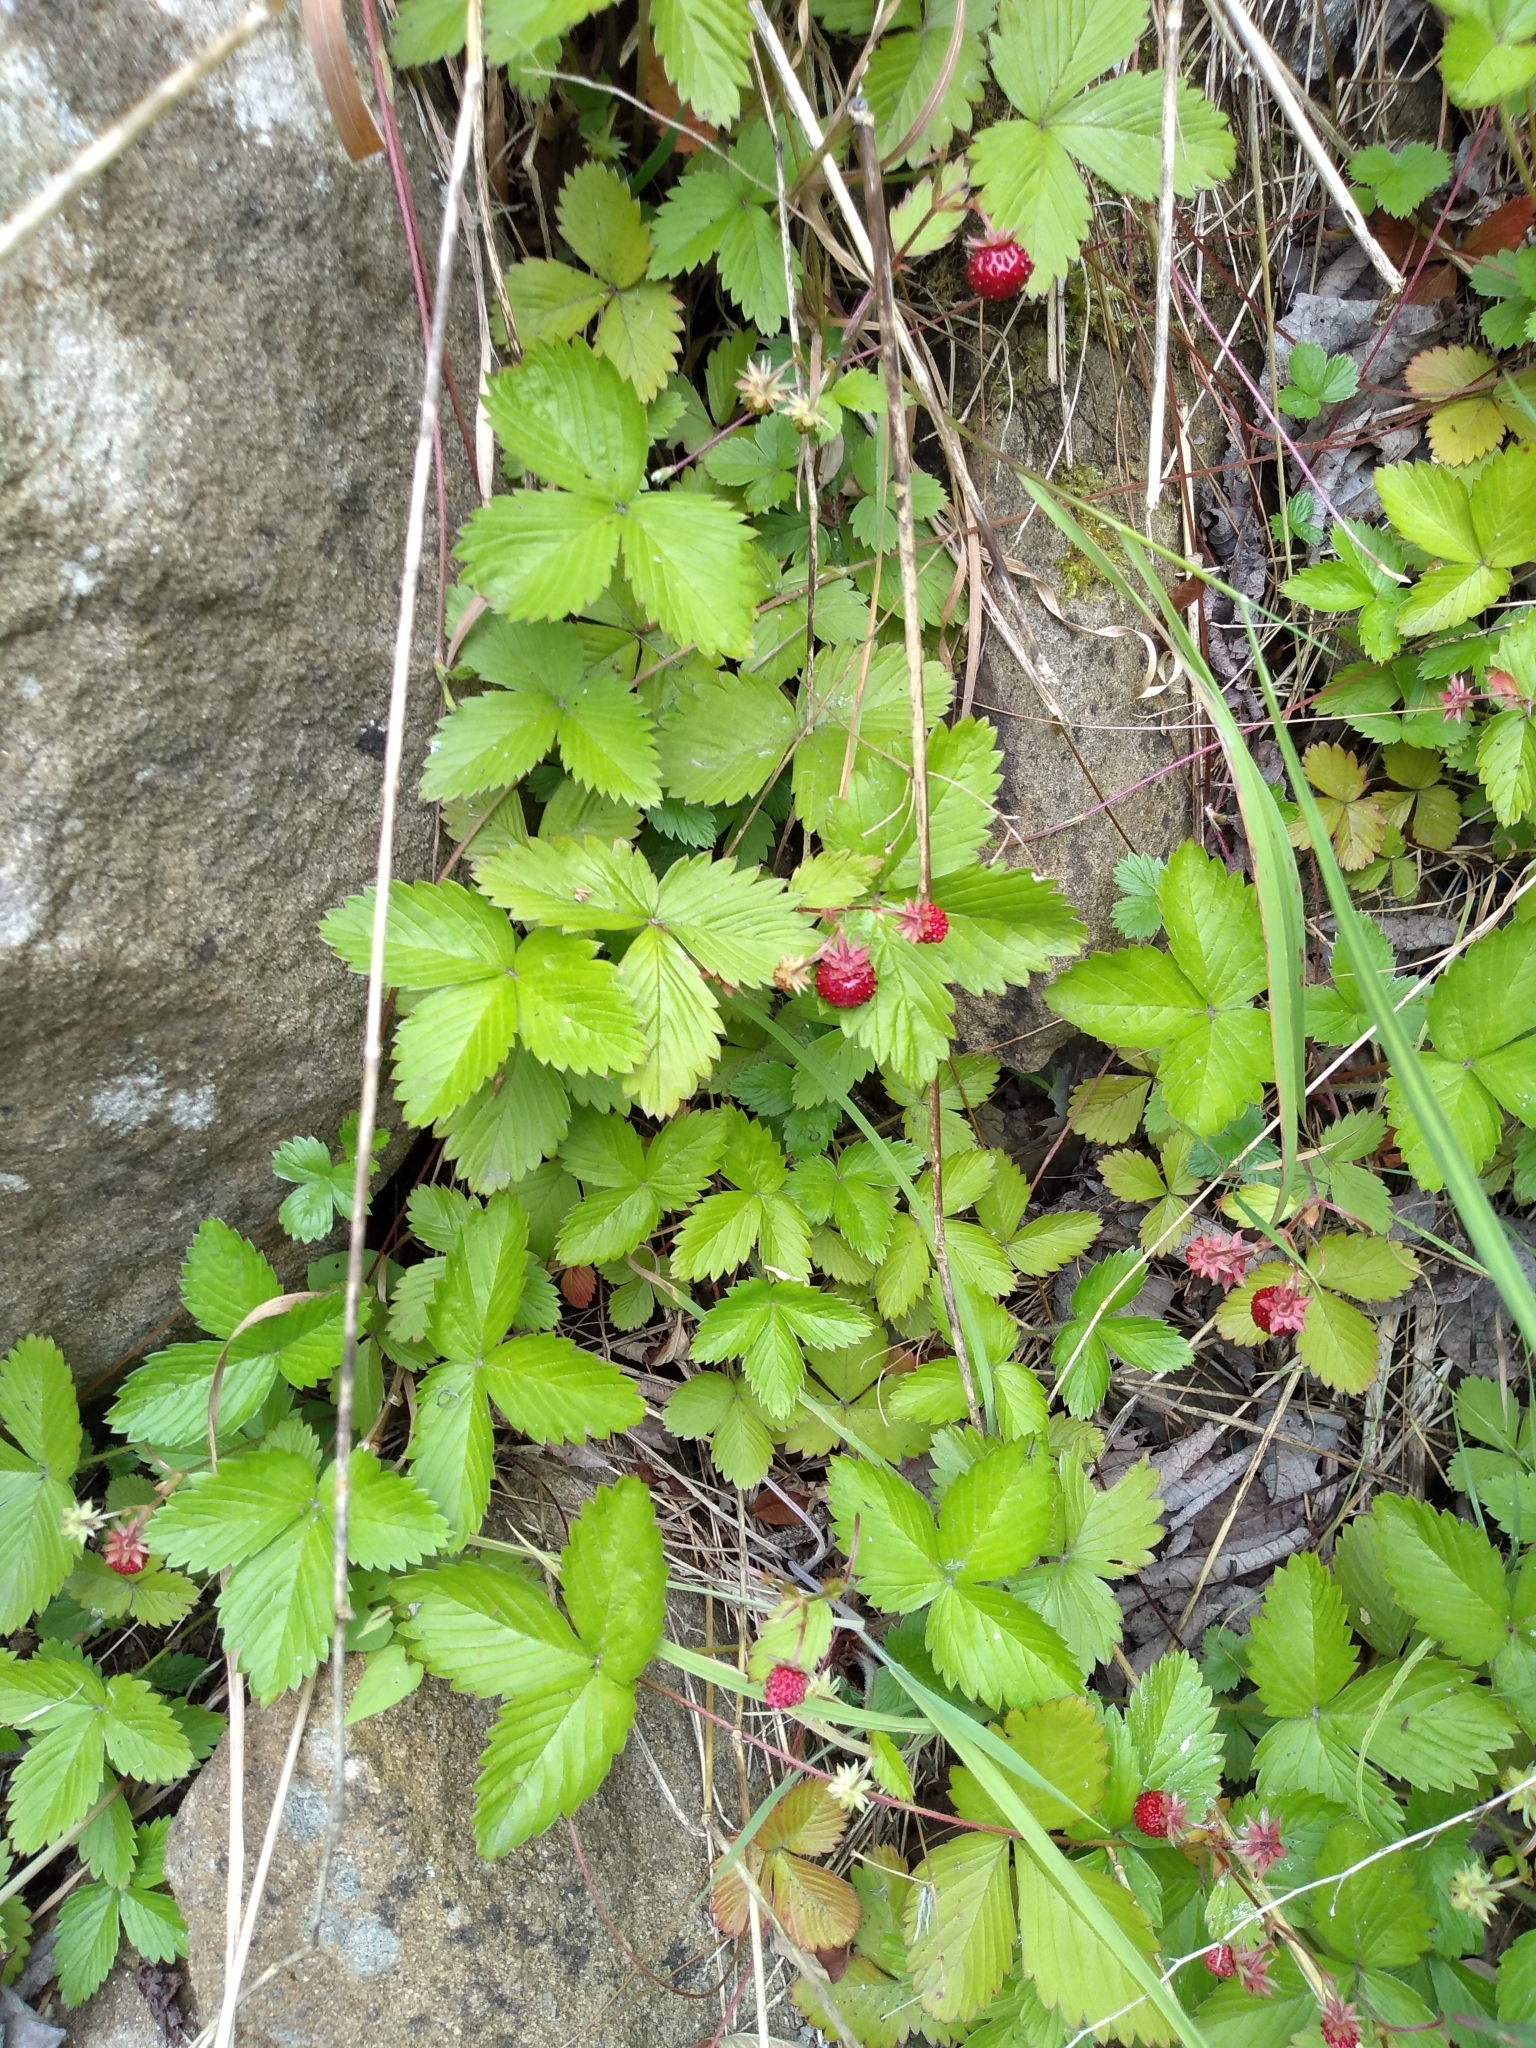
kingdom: Plantae
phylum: Tracheophyta
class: Magnoliopsida
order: Rosales
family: Rosaceae
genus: Fragaria
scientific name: Fragaria vesca
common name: Wild strawberry
